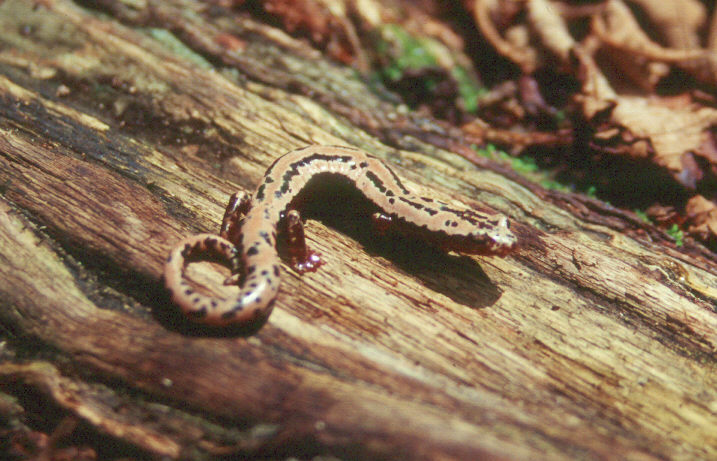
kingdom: Animalia
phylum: Chordata
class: Amphibia
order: Caudata
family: Plethodontidae
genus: Bolitoglossa
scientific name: Bolitoglossa mexicana
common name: Black-and-gold salamander
